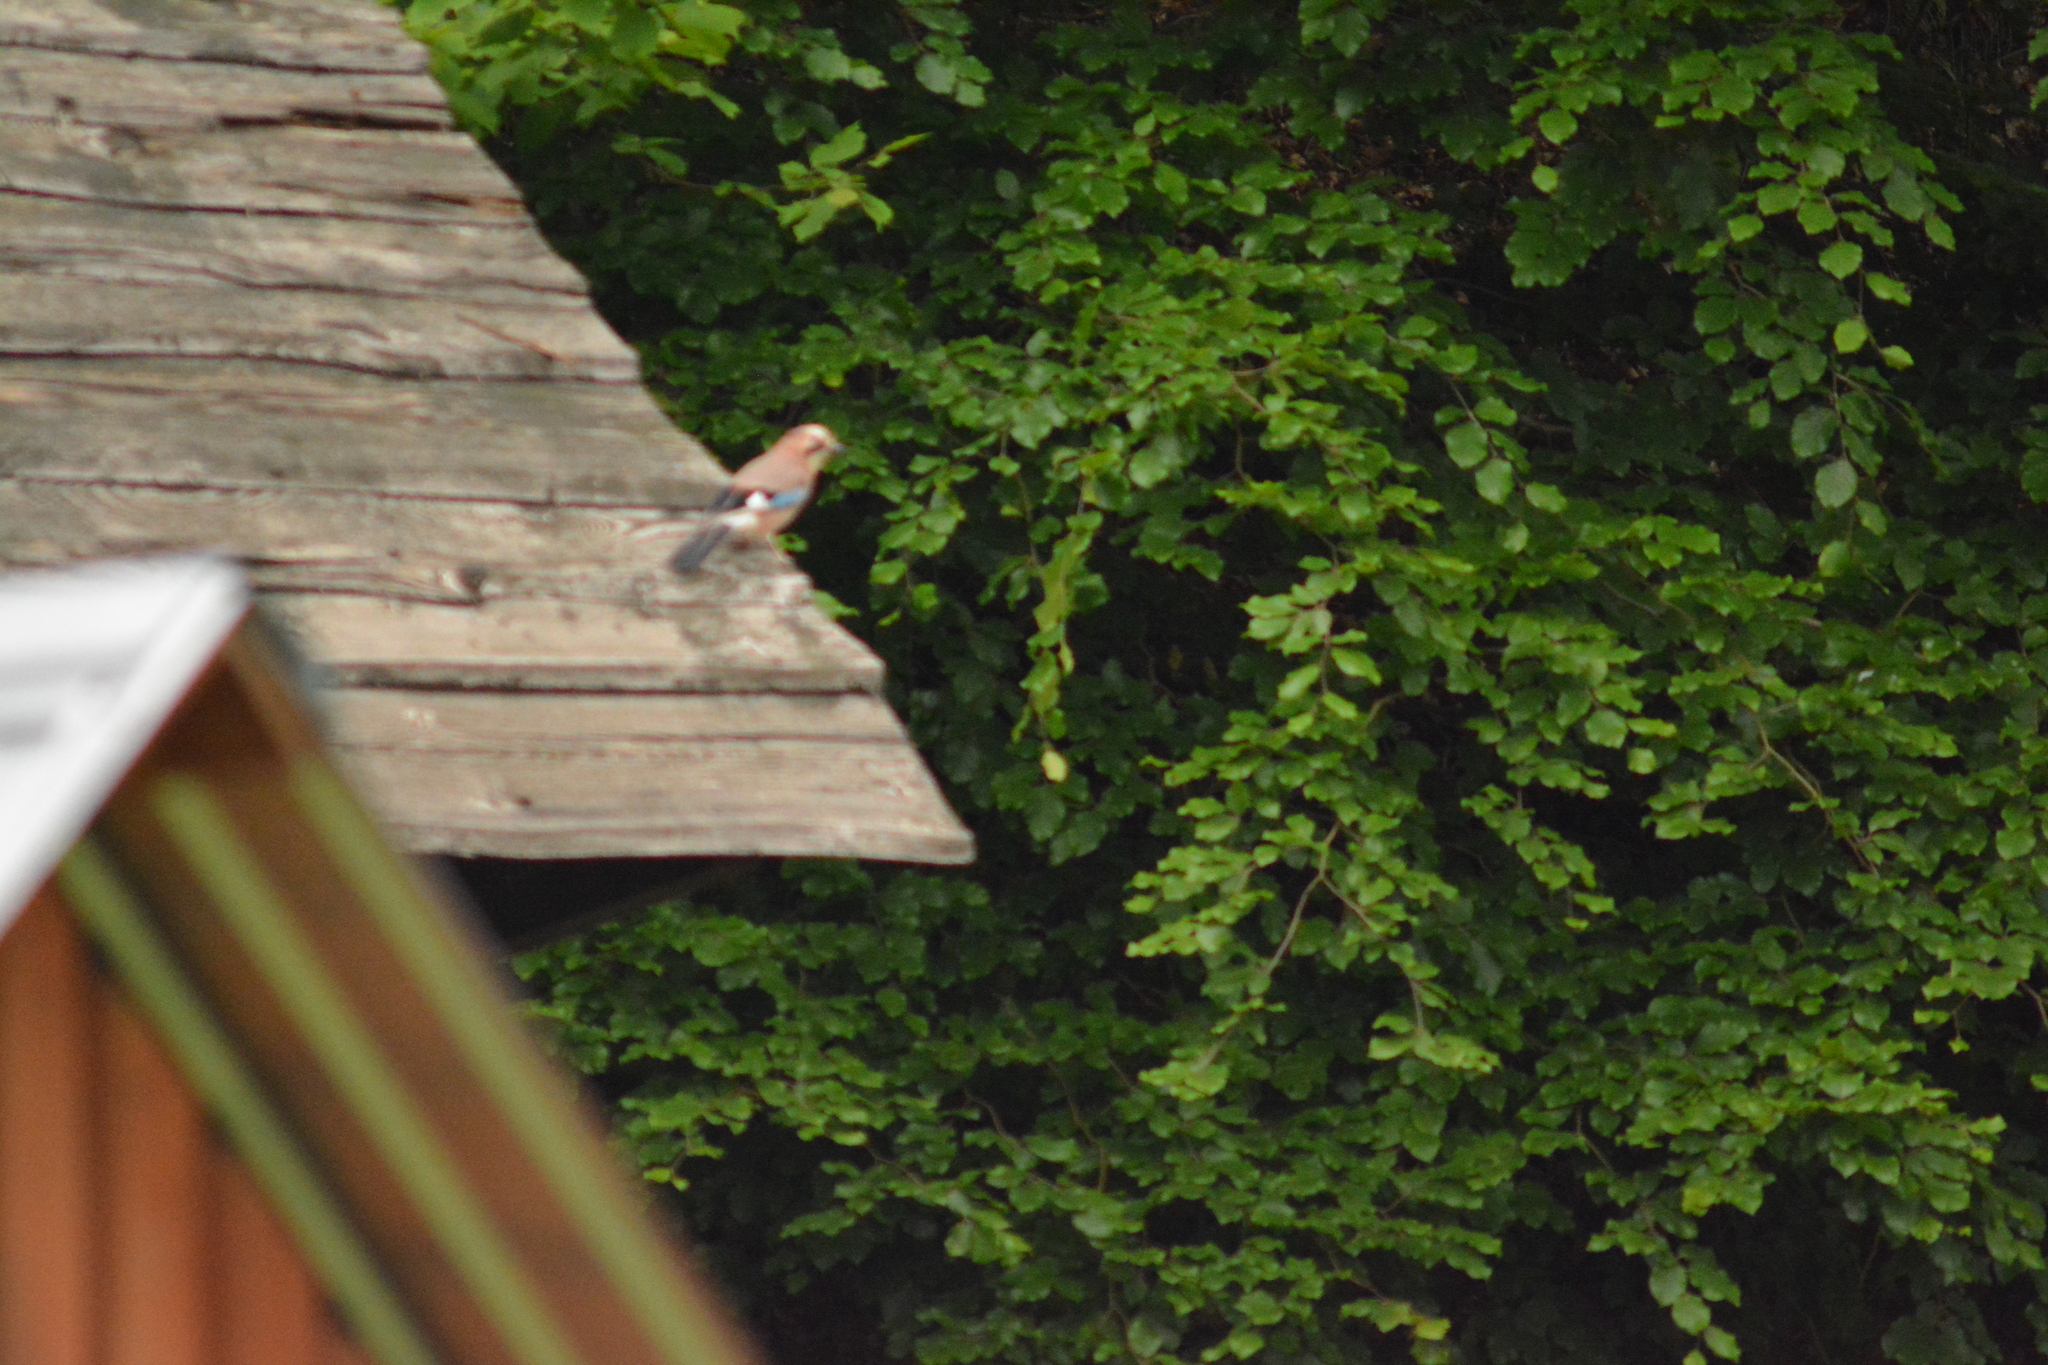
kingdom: Animalia
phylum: Chordata
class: Aves
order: Passeriformes
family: Corvidae
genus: Garrulus
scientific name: Garrulus glandarius
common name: Eurasian jay
